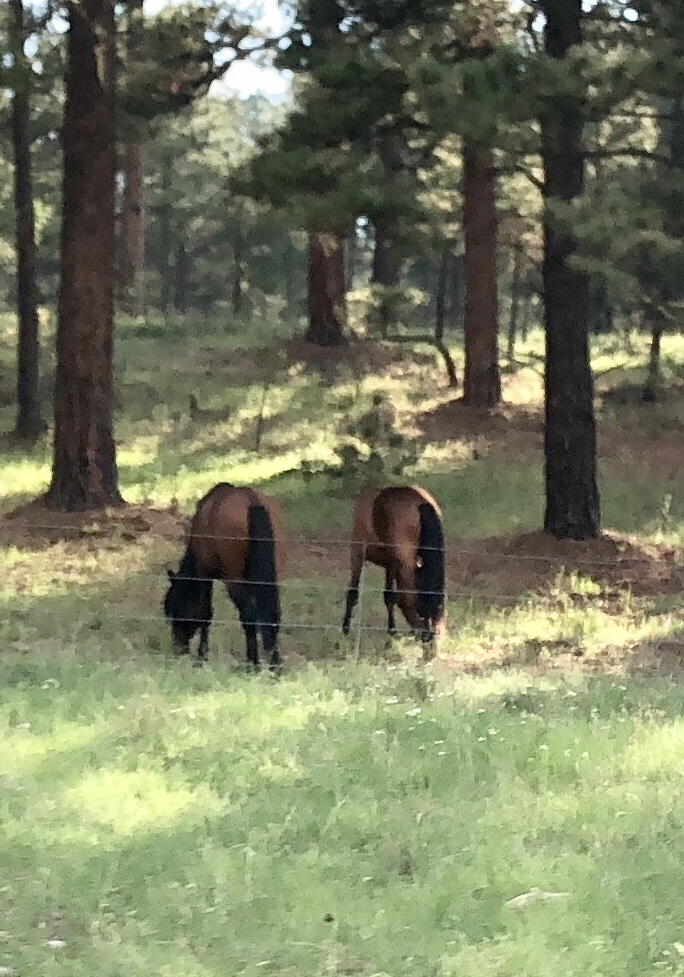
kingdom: Animalia
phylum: Chordata
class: Mammalia
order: Perissodactyla
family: Equidae
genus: Equus
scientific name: Equus caballus
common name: Horse
